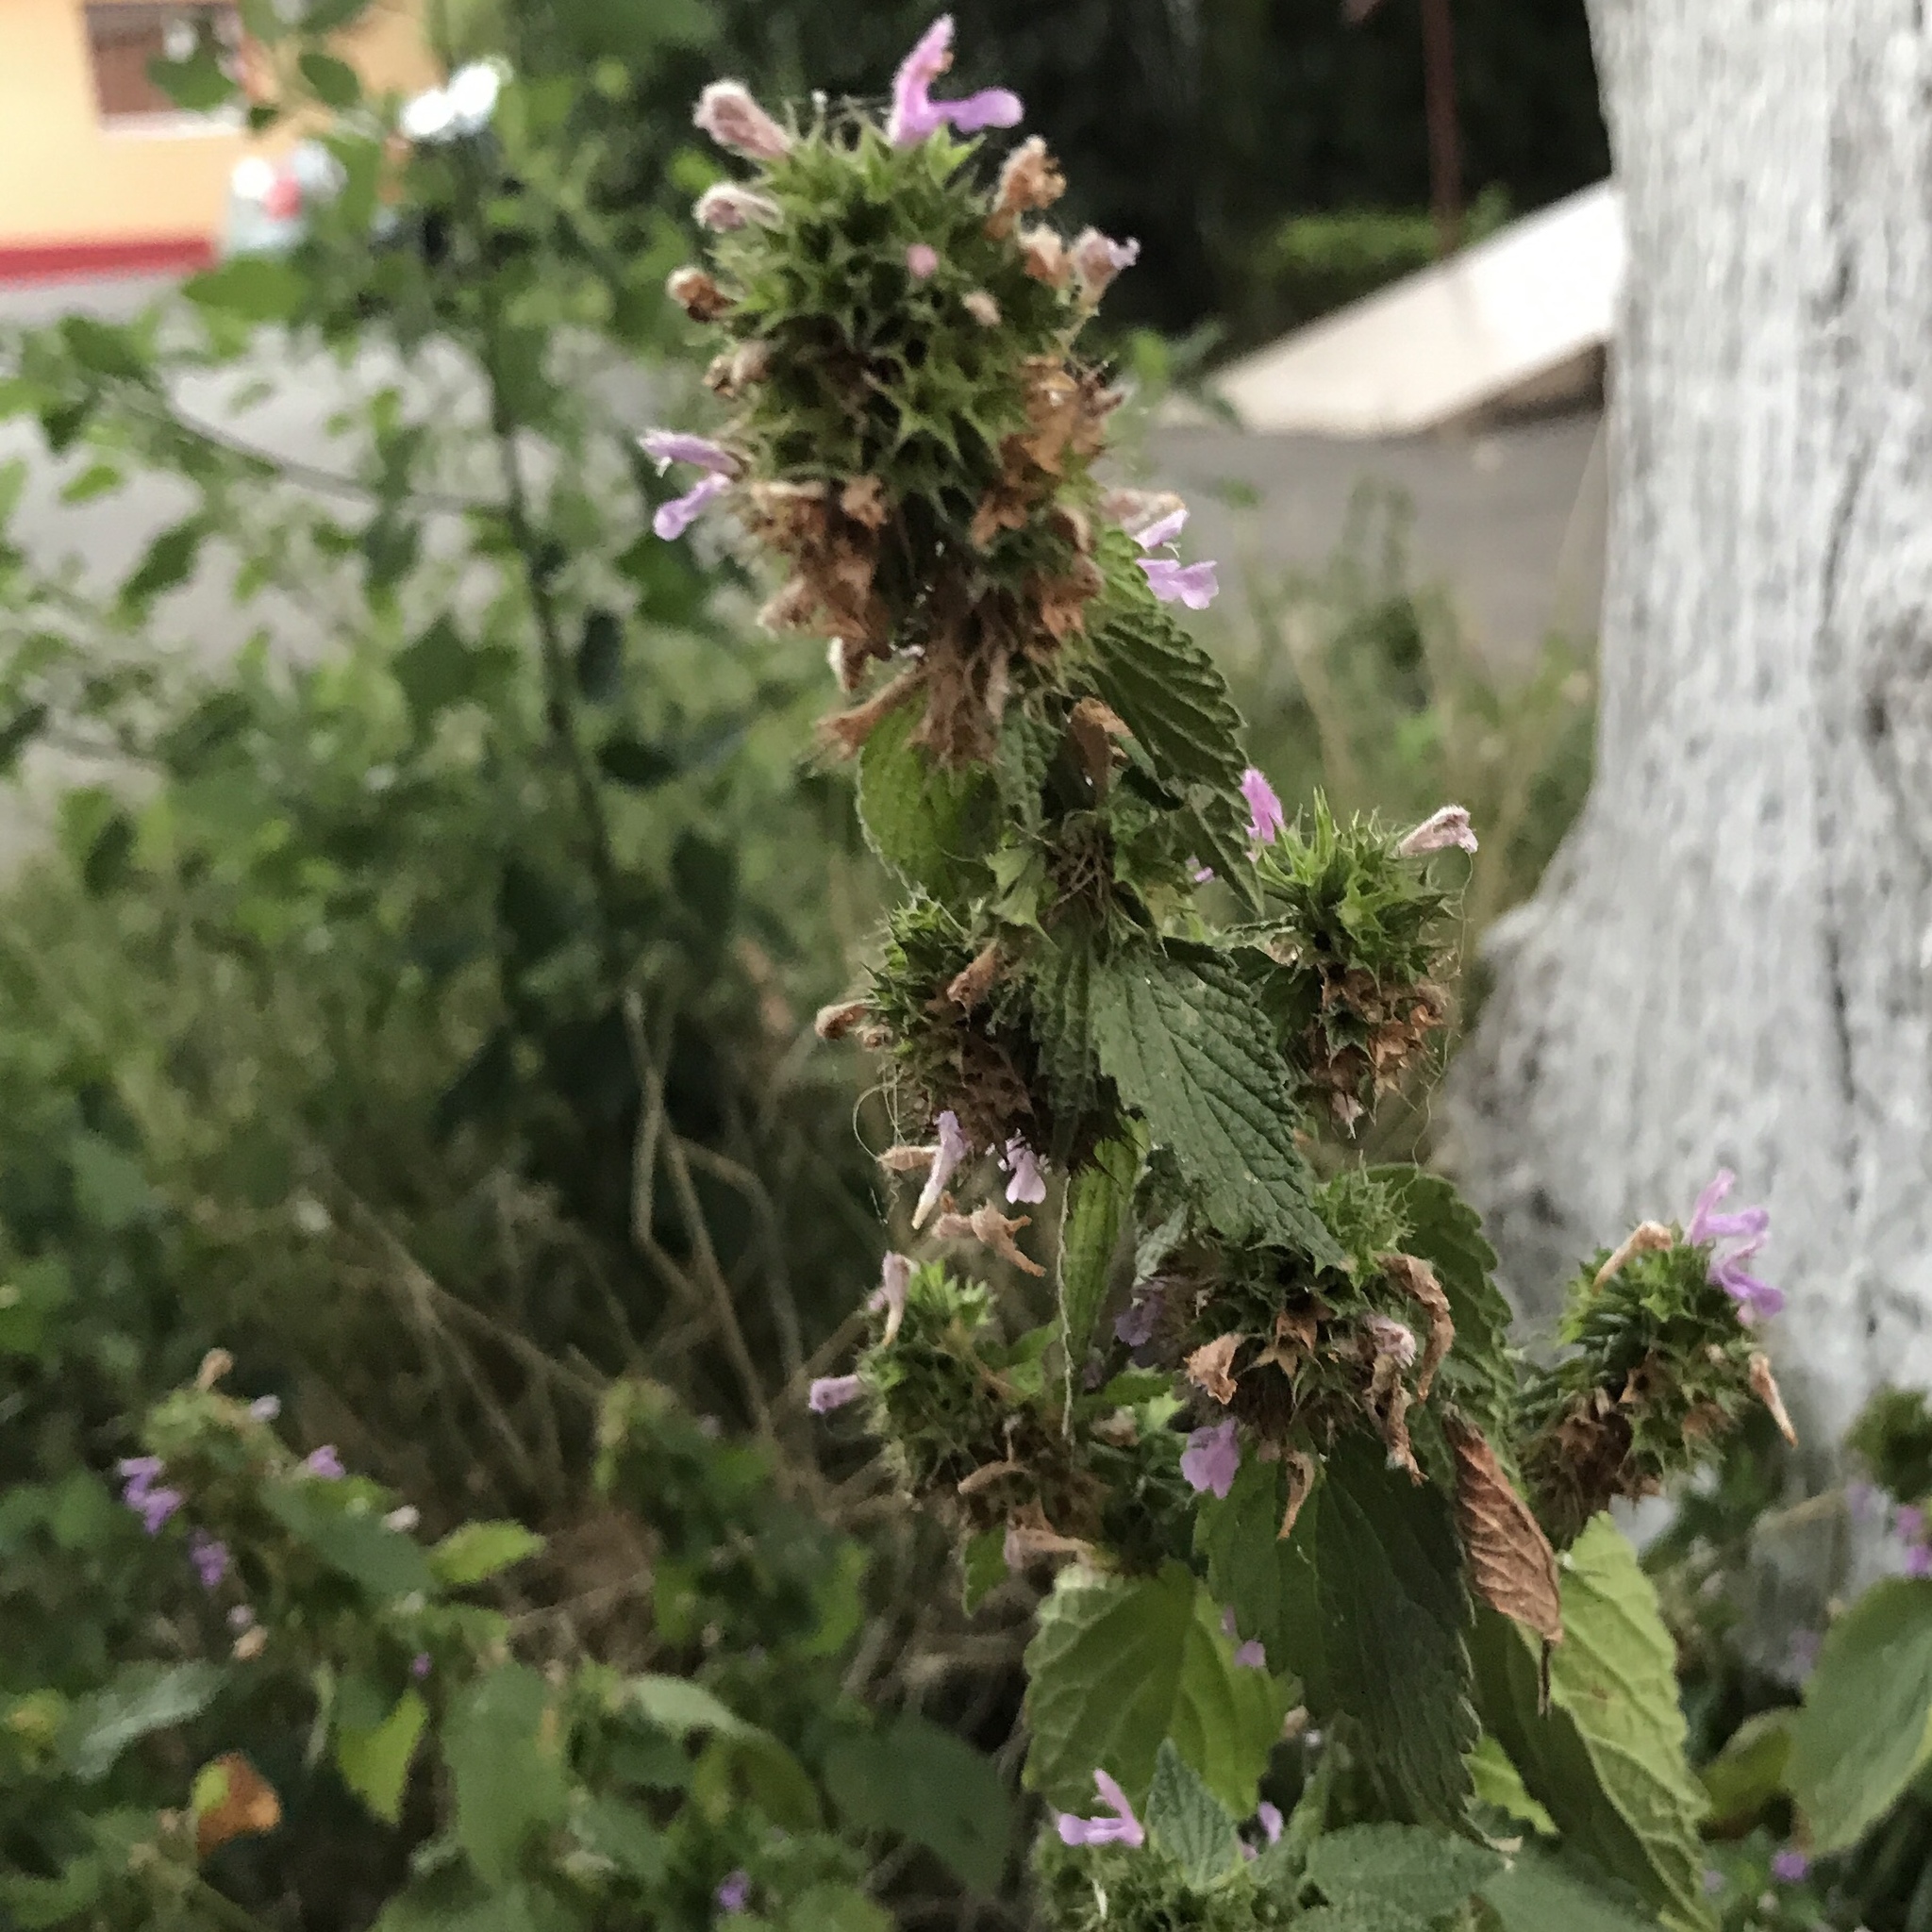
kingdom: Plantae
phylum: Tracheophyta
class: Magnoliopsida
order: Lamiales
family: Lamiaceae
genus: Ballota
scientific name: Ballota nigra
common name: Black horehound
